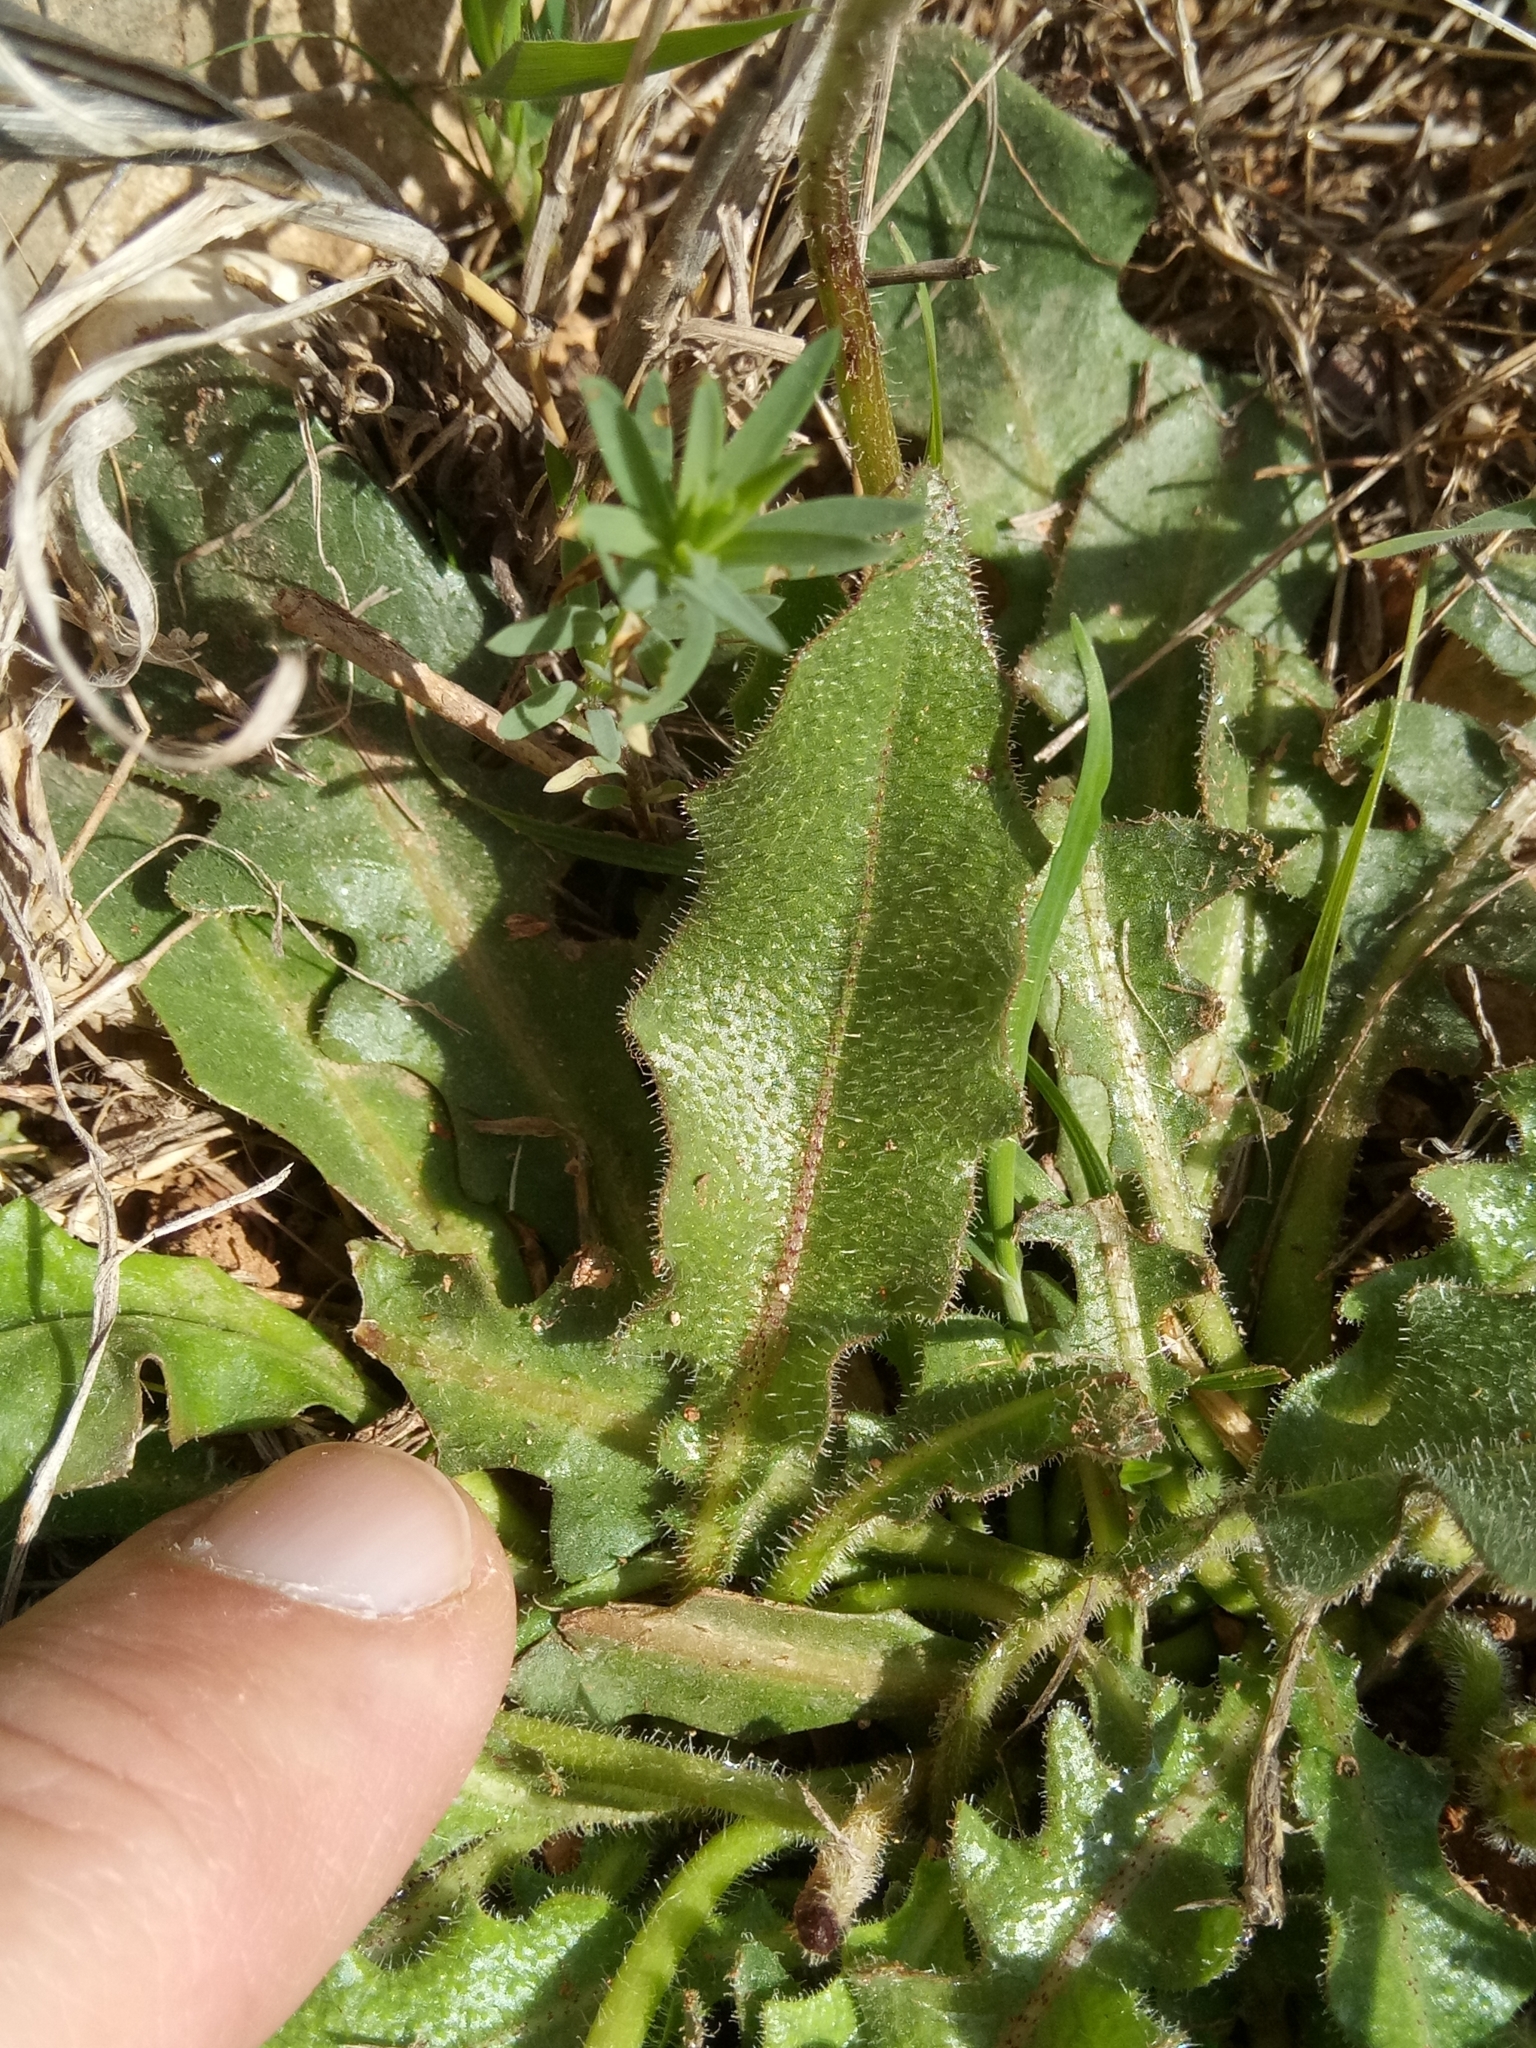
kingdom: Plantae
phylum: Tracheophyta
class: Magnoliopsida
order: Asterales
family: Asteraceae
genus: Leontodon
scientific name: Leontodon tuberosus
